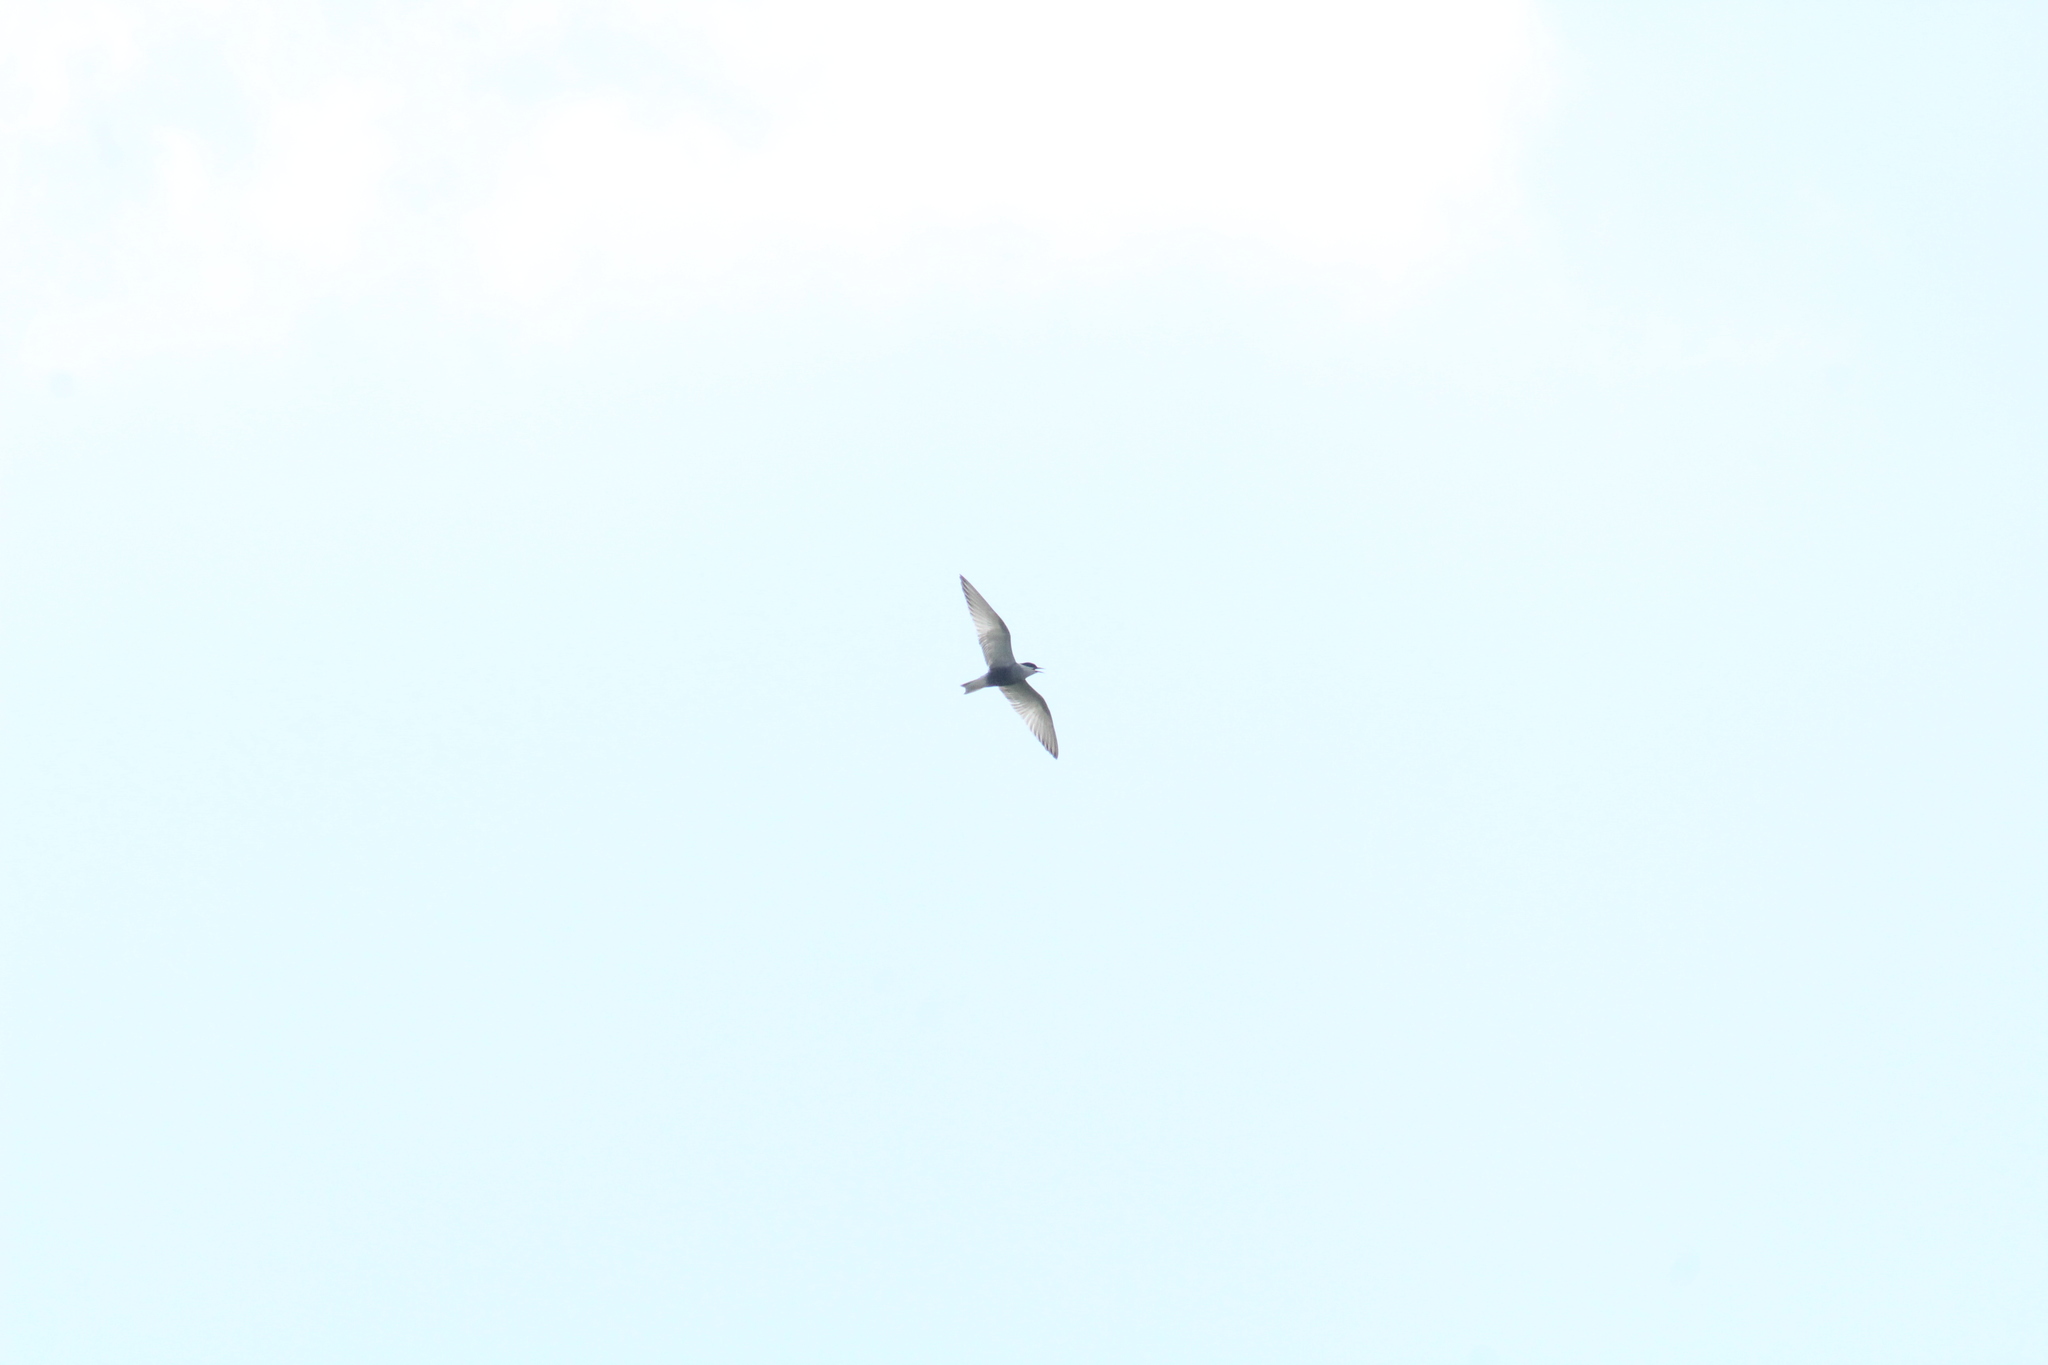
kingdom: Animalia
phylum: Chordata
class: Aves
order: Charadriiformes
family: Laridae
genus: Chlidonias
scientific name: Chlidonias hybrida
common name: Whiskered tern
